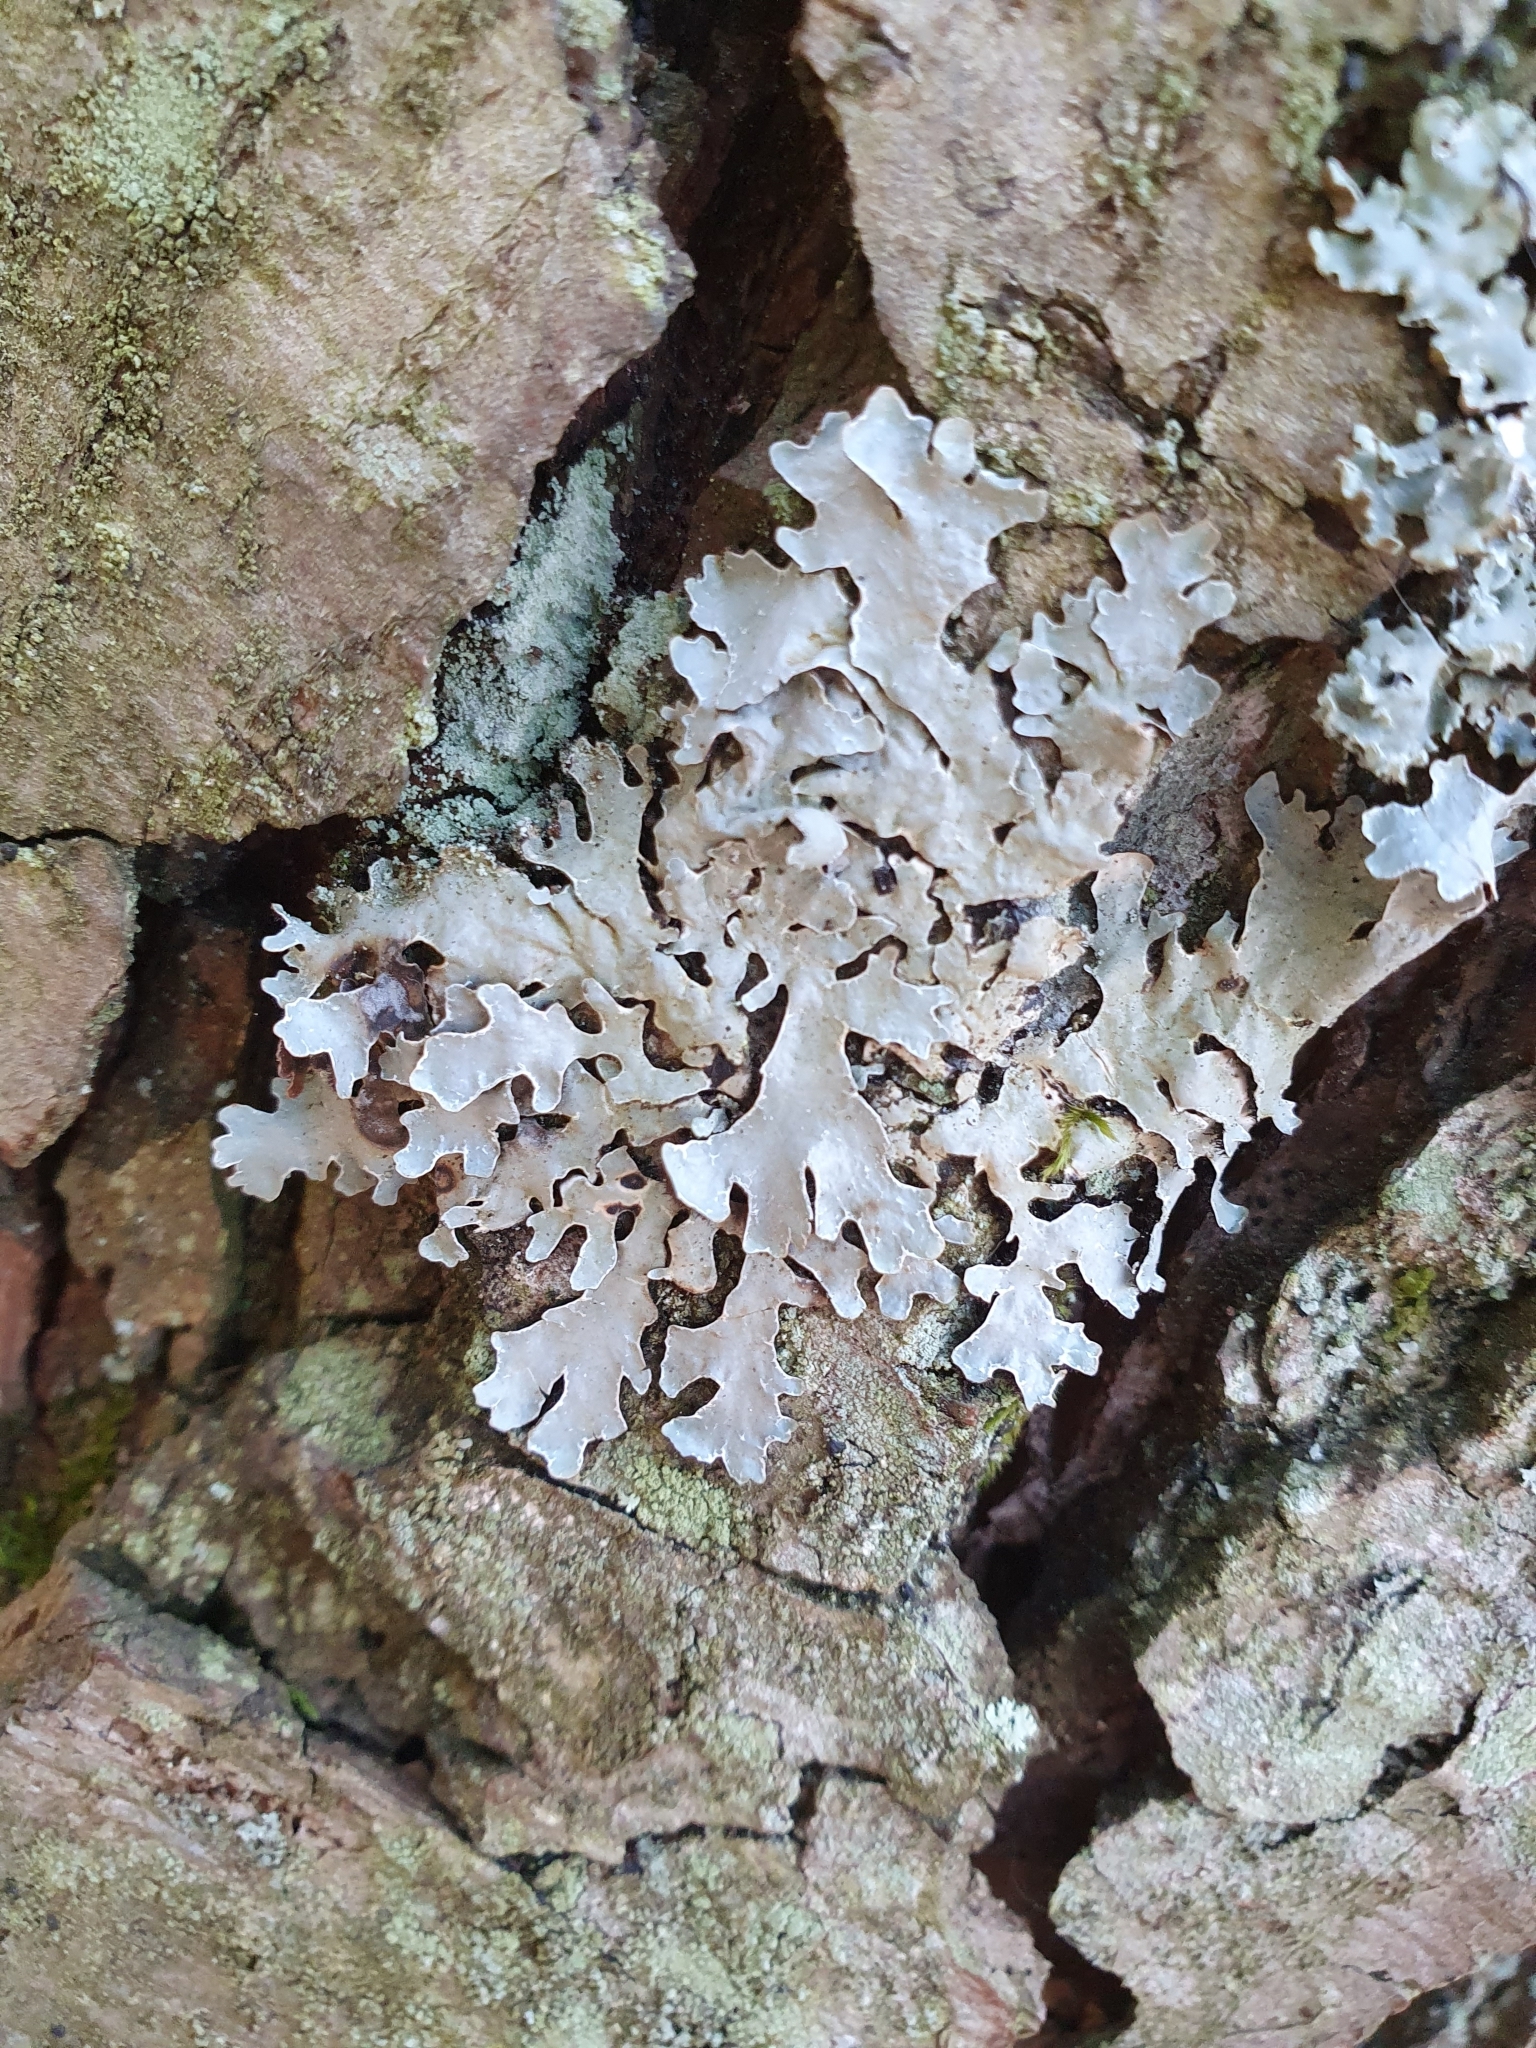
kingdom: Fungi
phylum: Ascomycota
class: Lecanoromycetes
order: Lecanorales
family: Parmeliaceae
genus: Parmelia
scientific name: Parmelia sulcata
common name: Netted shield lichen
